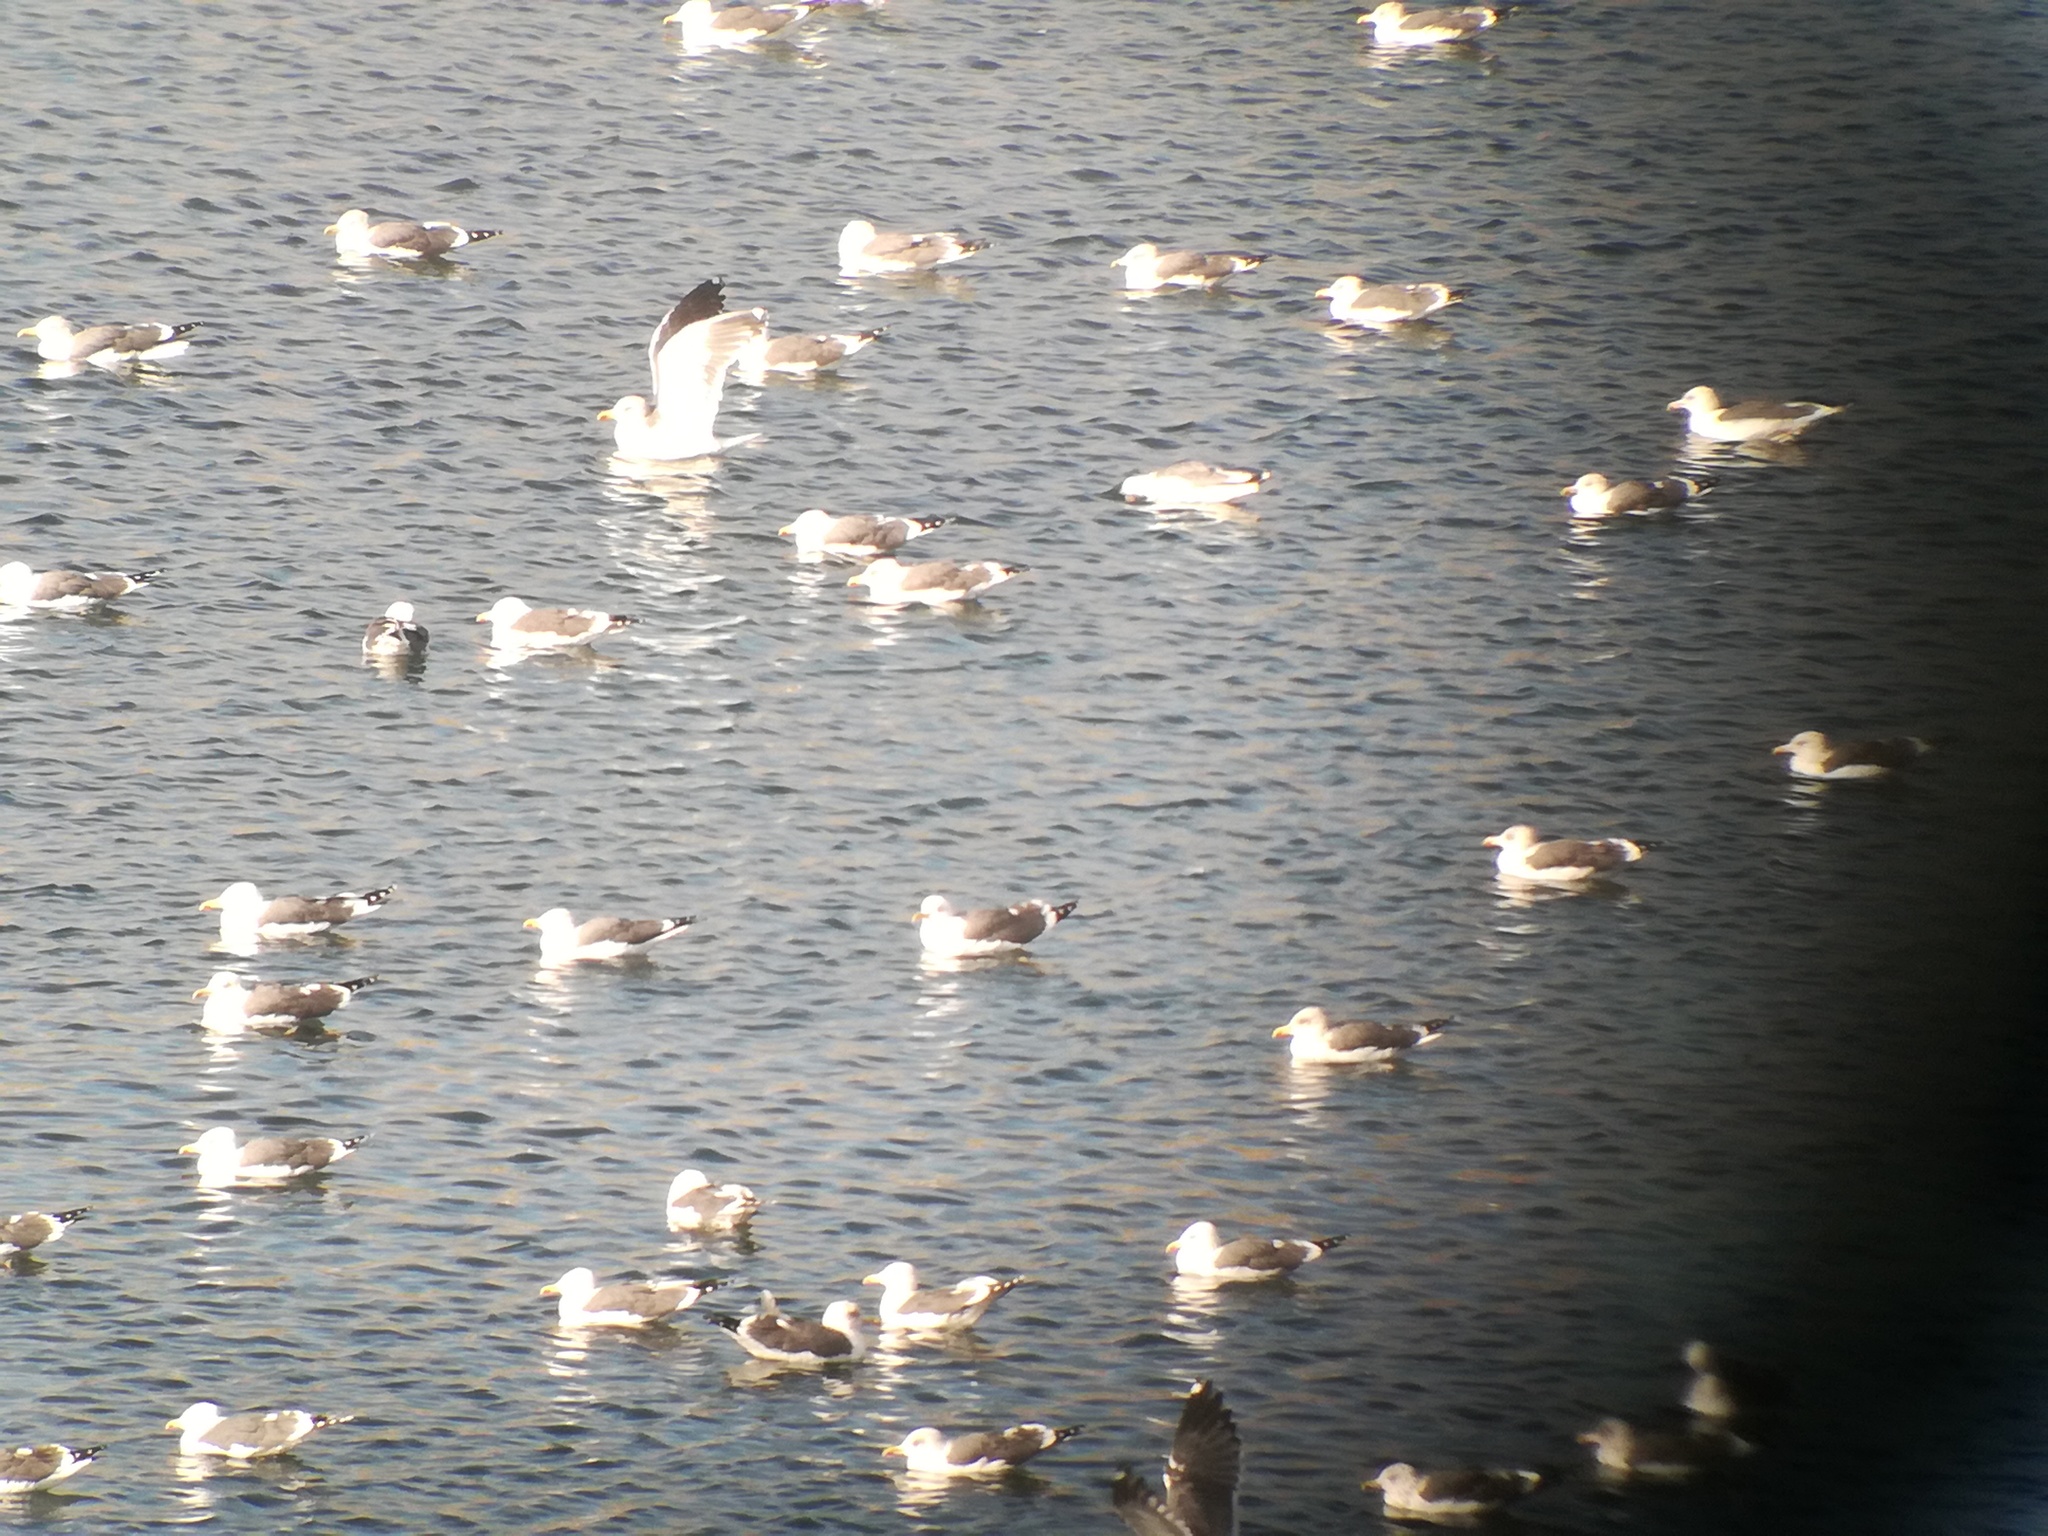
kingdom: Animalia
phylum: Chordata
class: Aves
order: Charadriiformes
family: Laridae
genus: Larus
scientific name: Larus fuscus
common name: Lesser black-backed gull
